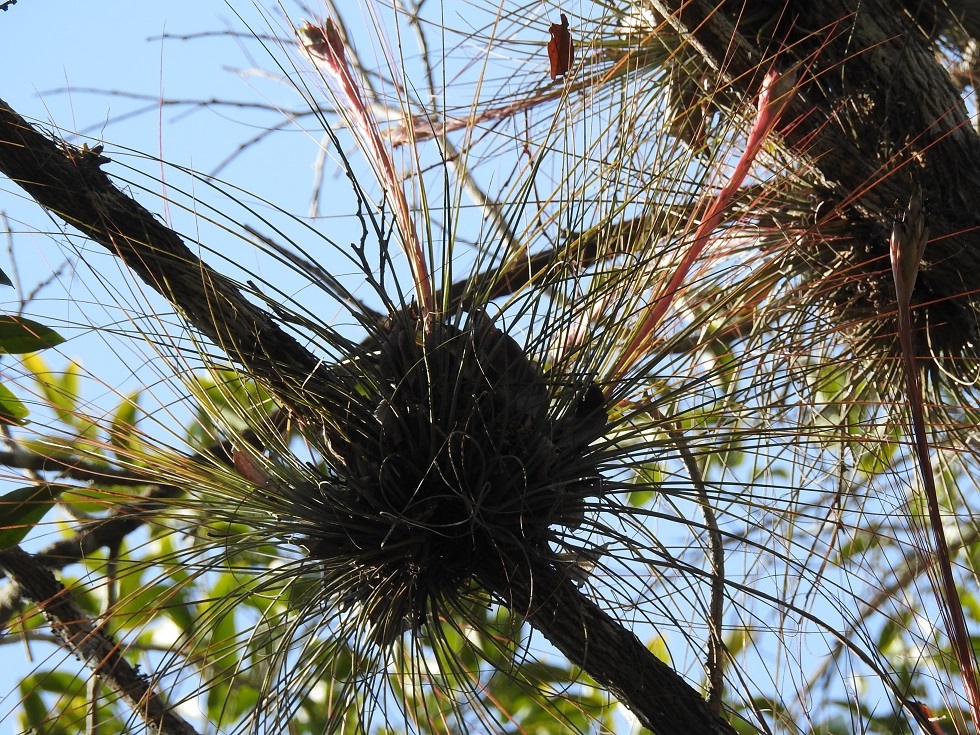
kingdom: Plantae
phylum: Tracheophyta
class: Liliopsida
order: Poales
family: Bromeliaceae
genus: Tillandsia
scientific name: Tillandsia juncea
